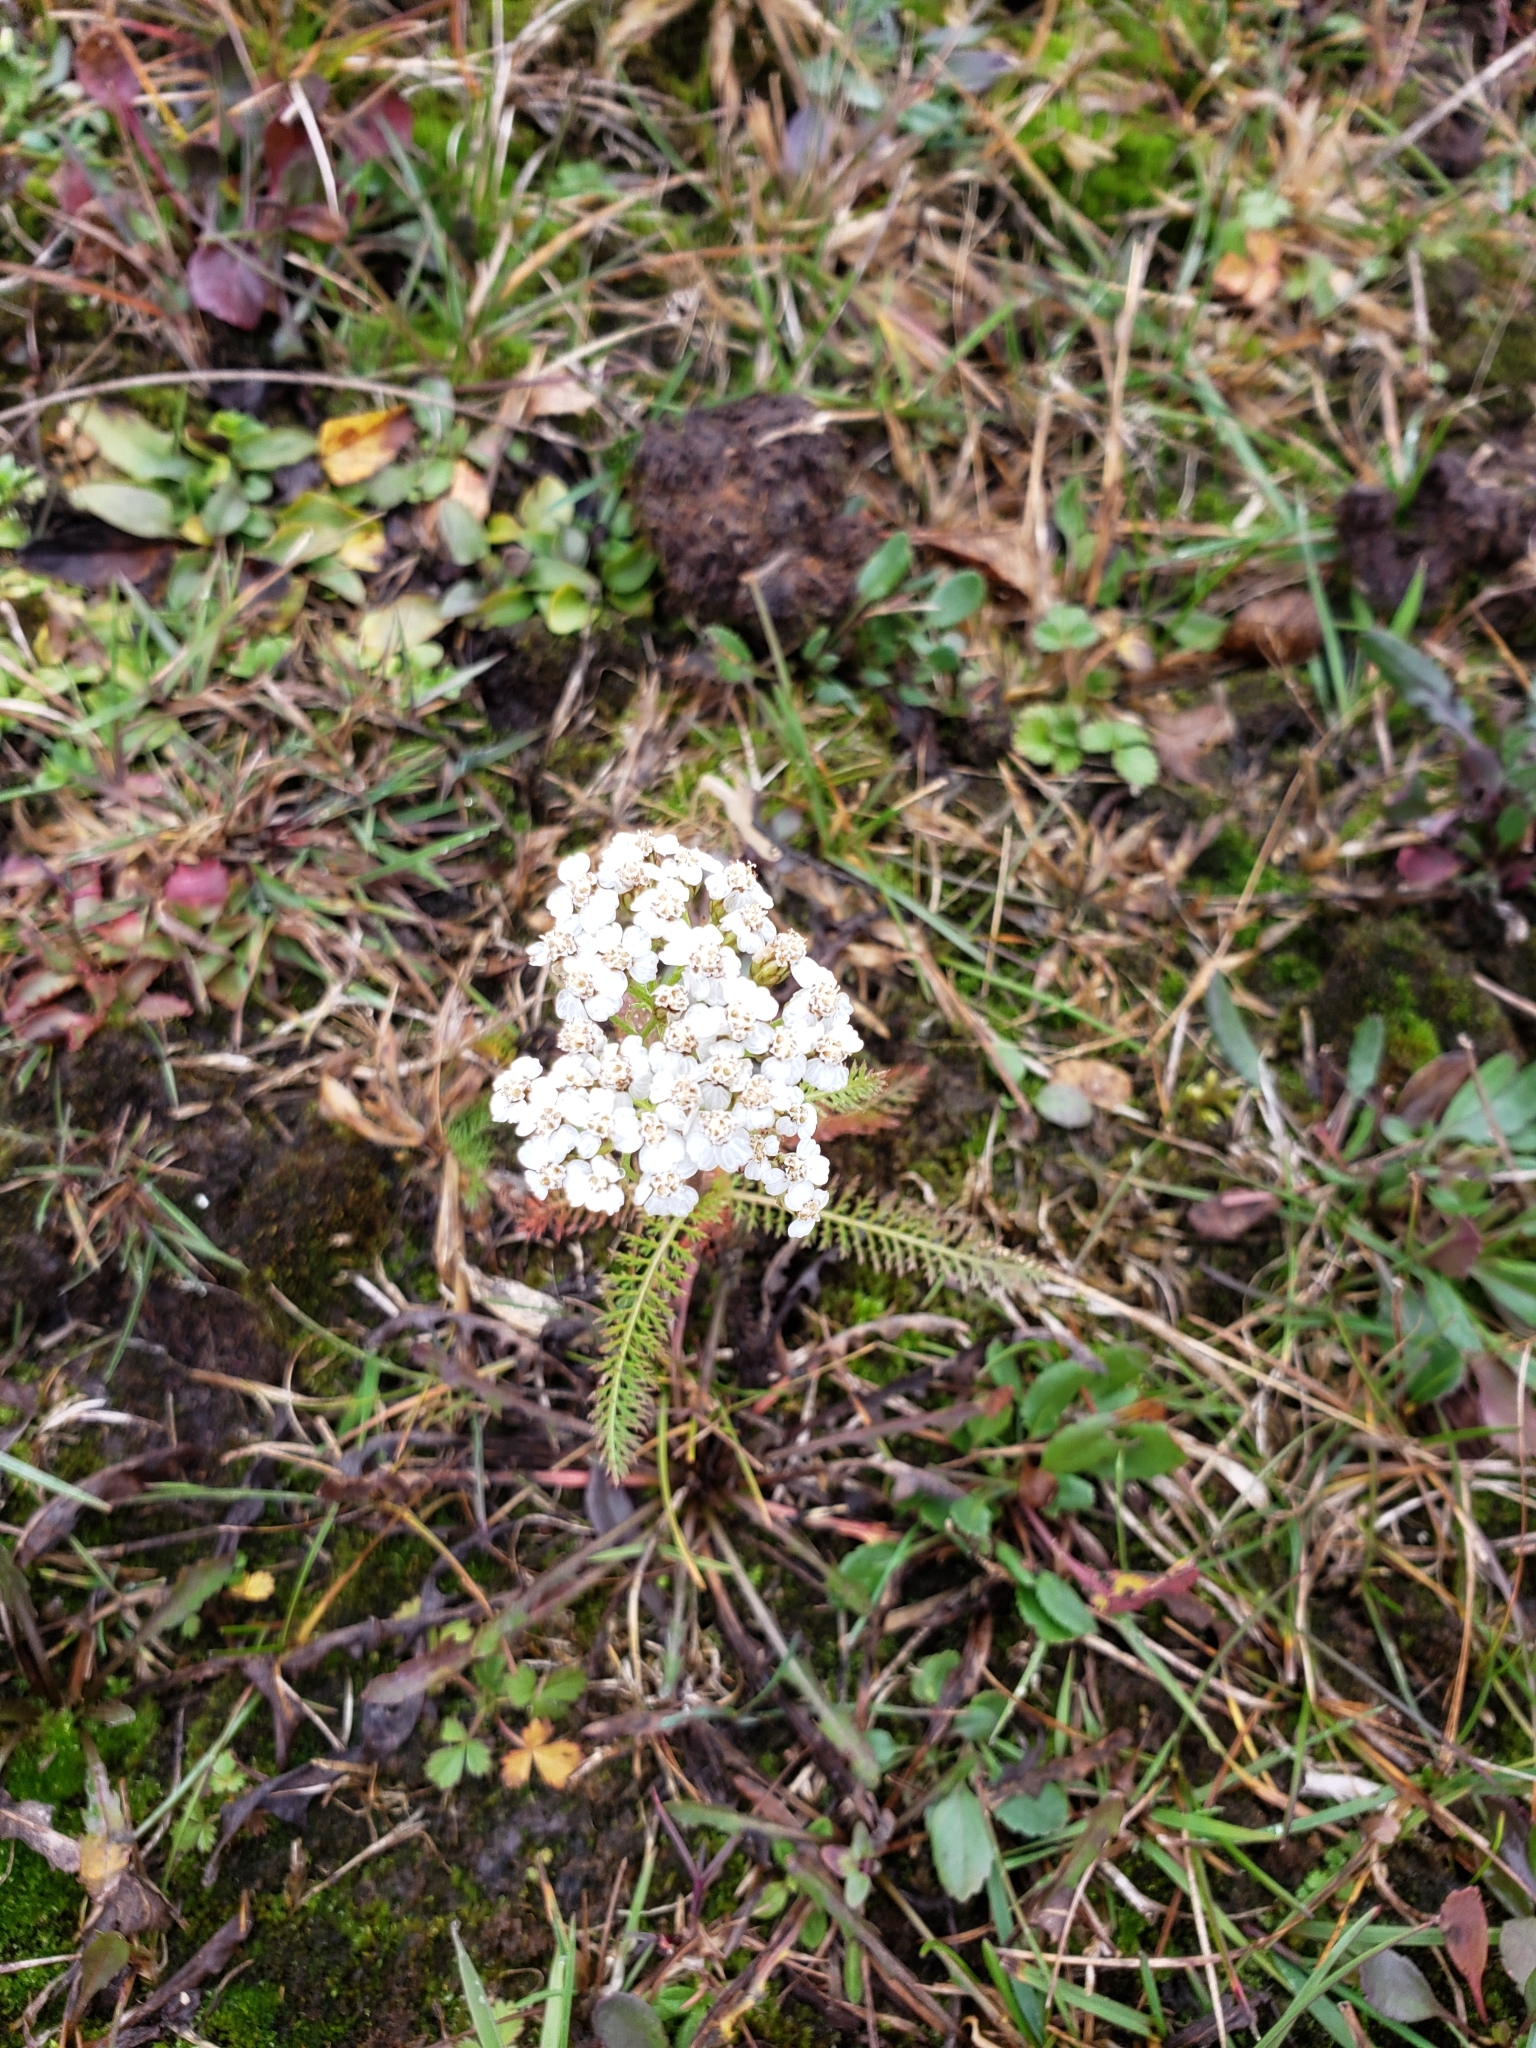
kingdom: Plantae
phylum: Tracheophyta
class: Magnoliopsida
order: Asterales
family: Asteraceae
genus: Achillea
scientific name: Achillea millefolium
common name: Yarrow
